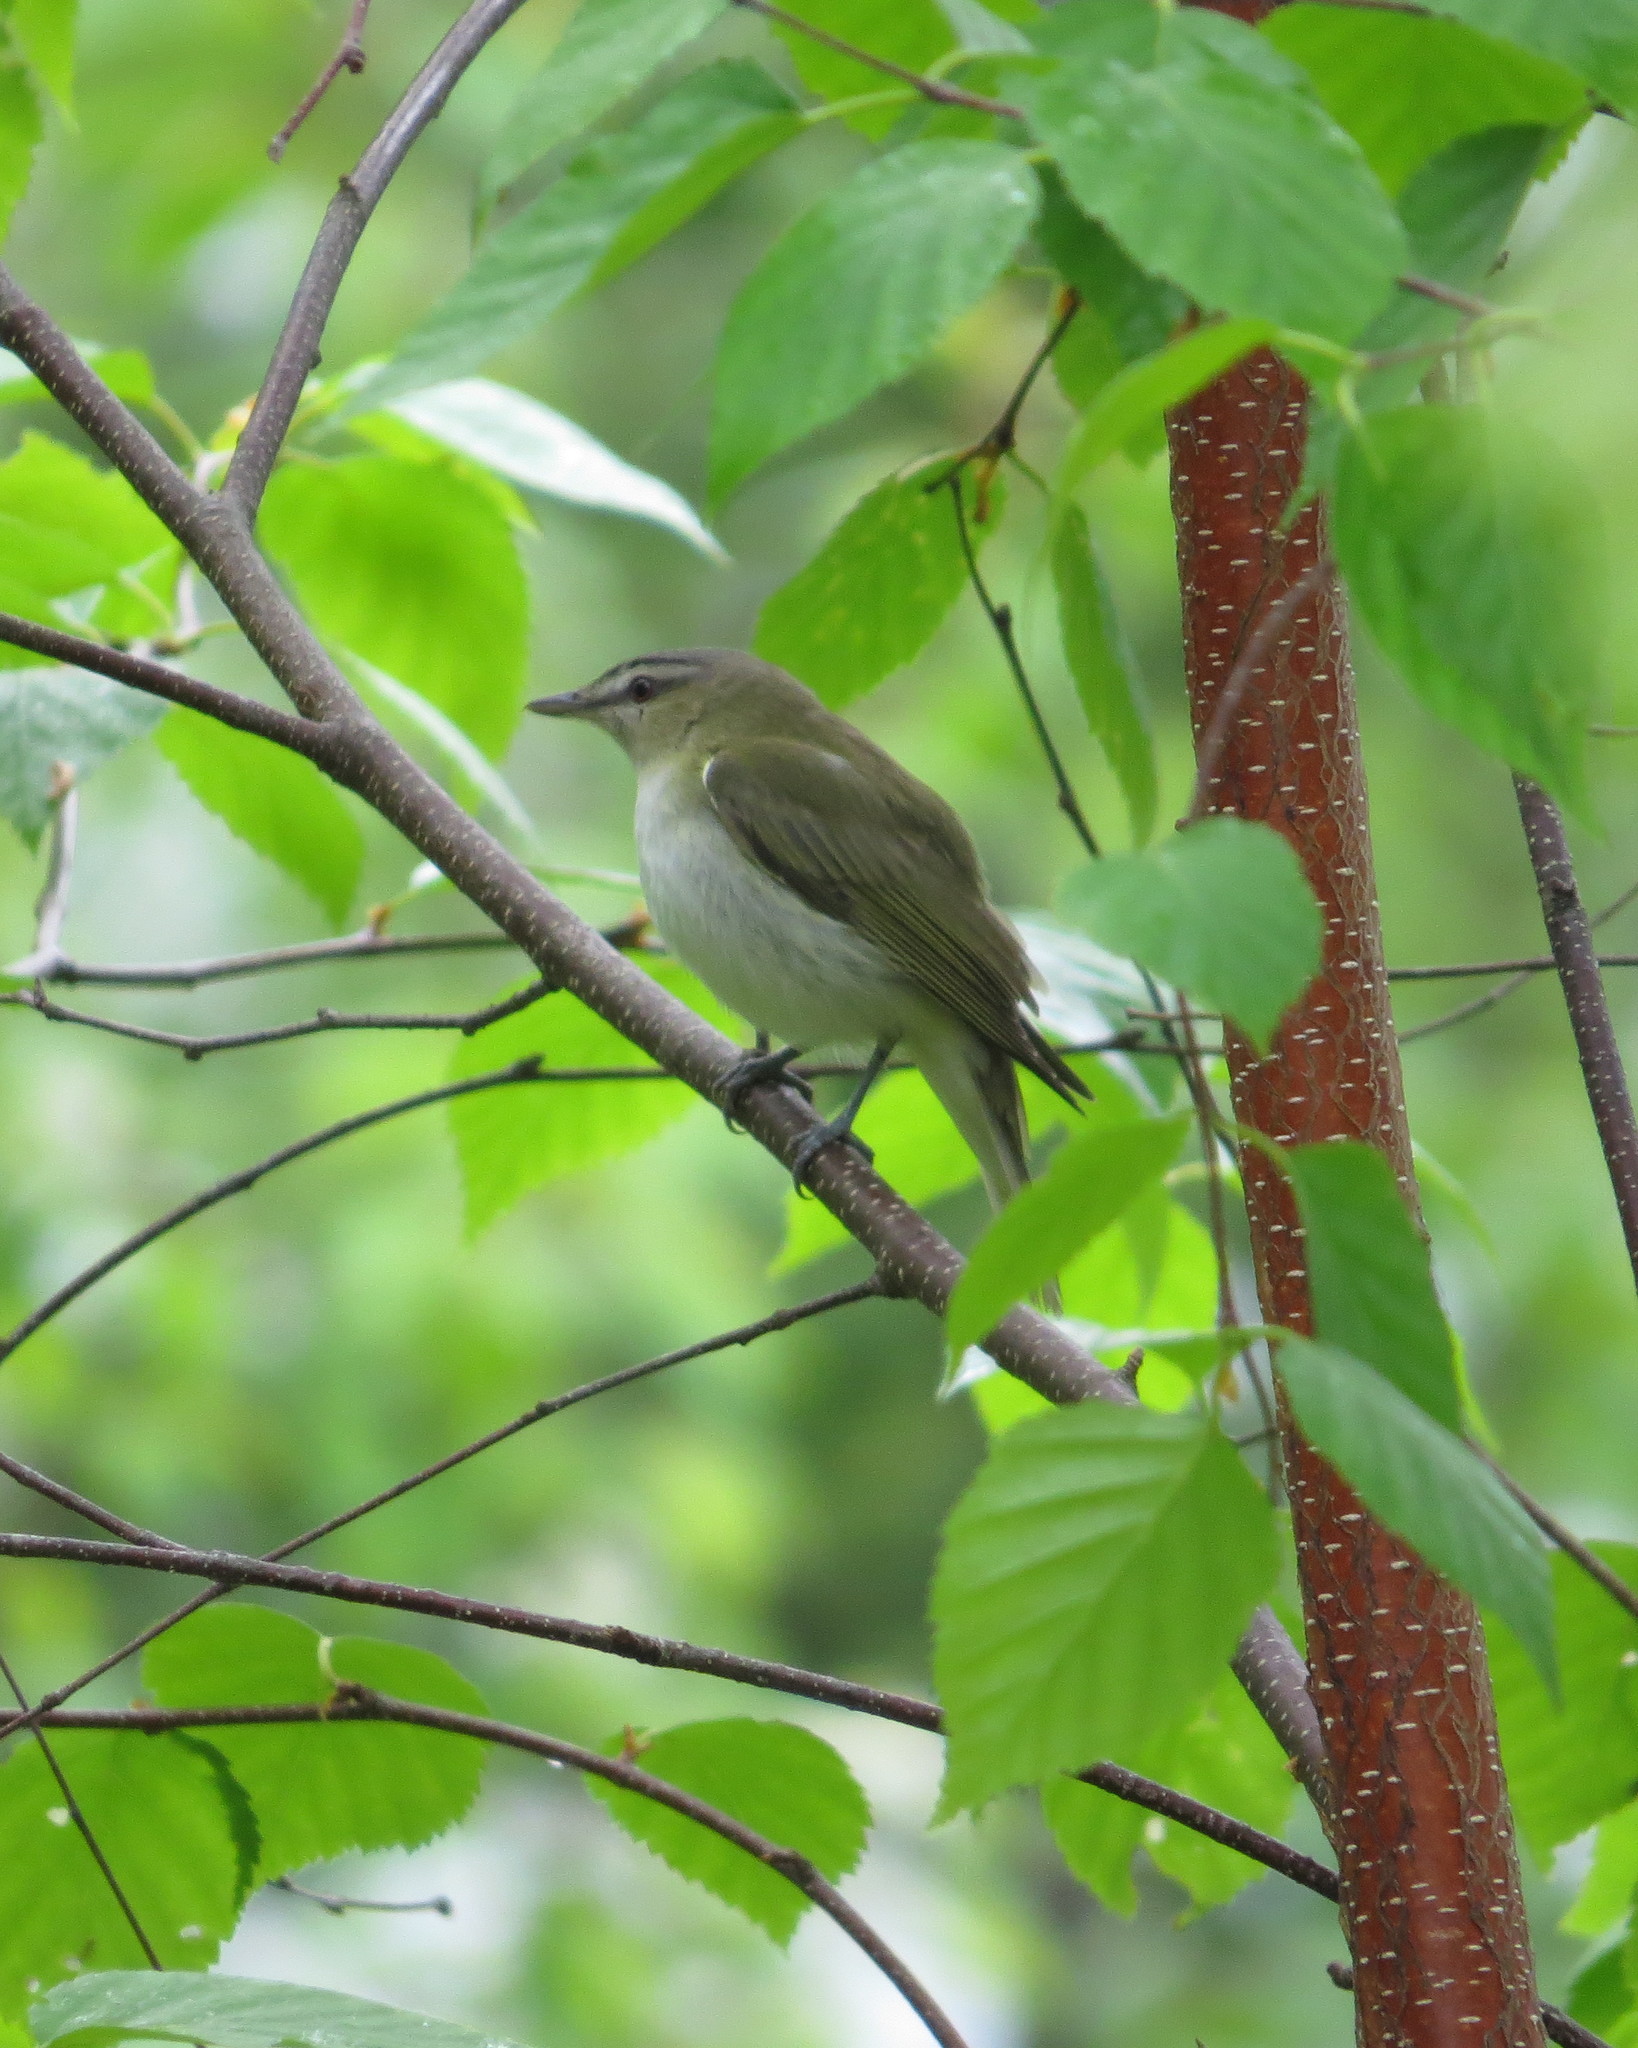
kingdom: Animalia
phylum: Chordata
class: Aves
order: Passeriformes
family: Vireonidae
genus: Vireo
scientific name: Vireo olivaceus
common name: Red-eyed vireo
